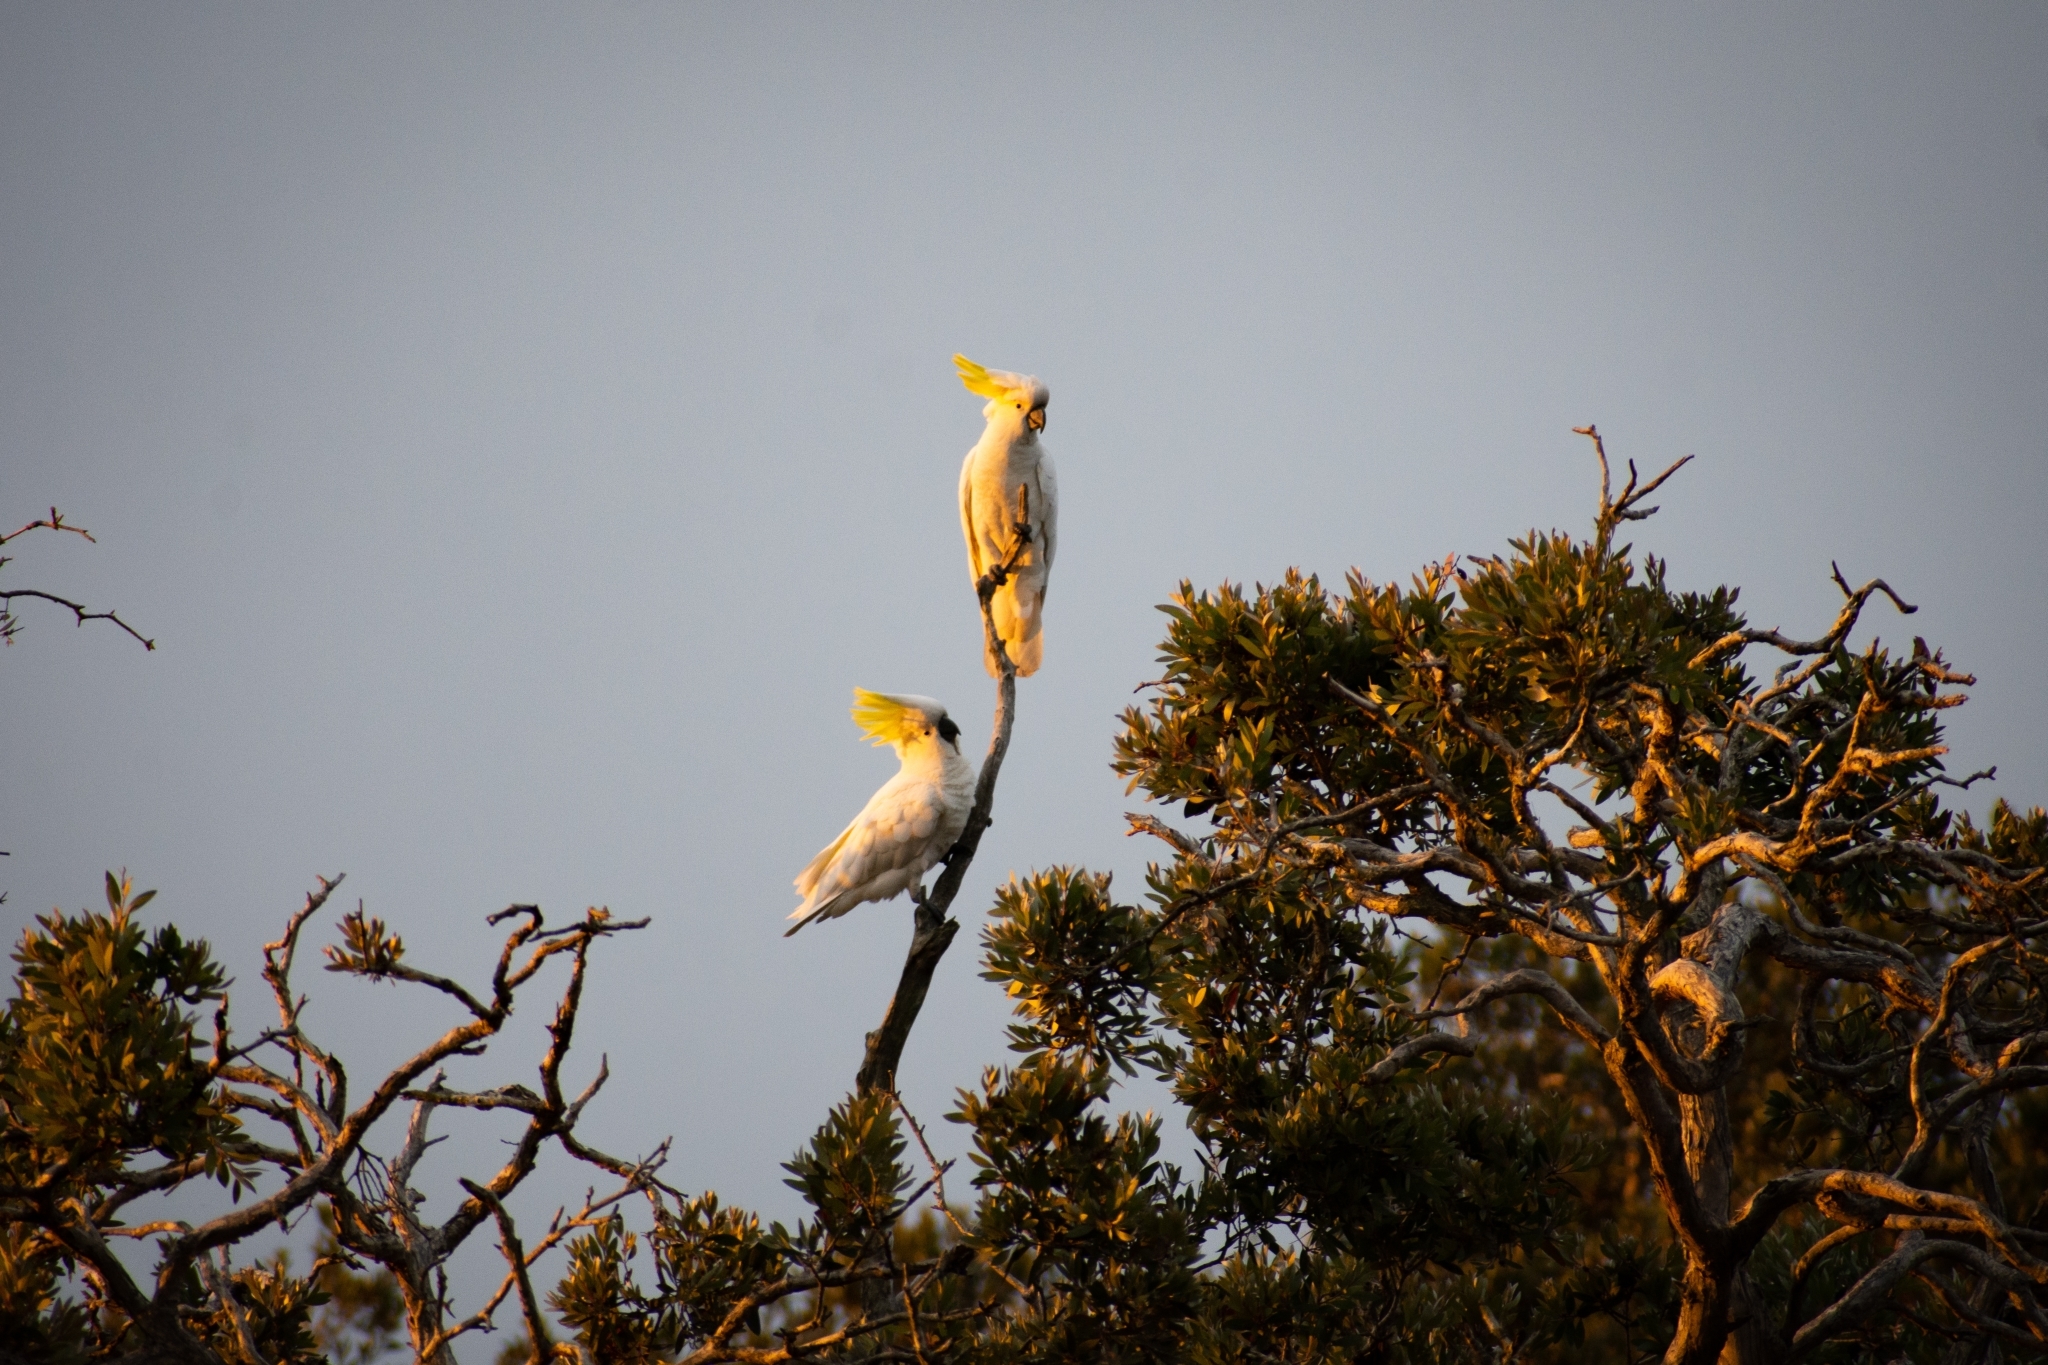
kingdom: Animalia
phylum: Chordata
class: Aves
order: Psittaciformes
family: Psittacidae
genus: Cacatua
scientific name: Cacatua galerita
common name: Sulphur-crested cockatoo
